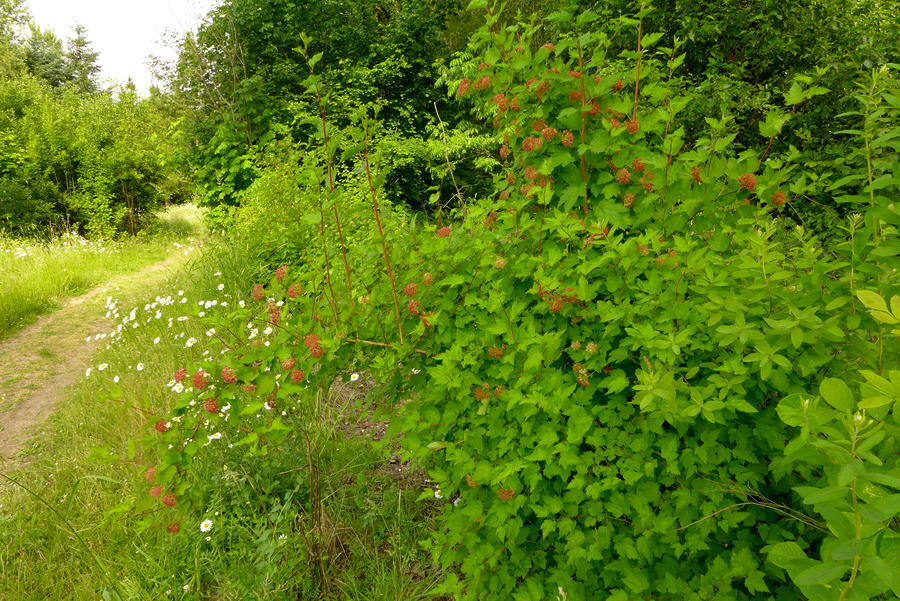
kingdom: Plantae
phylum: Tracheophyta
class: Magnoliopsida
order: Rosales
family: Rosaceae
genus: Physocarpus
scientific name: Physocarpus capitatus
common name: Pacific ninebark
